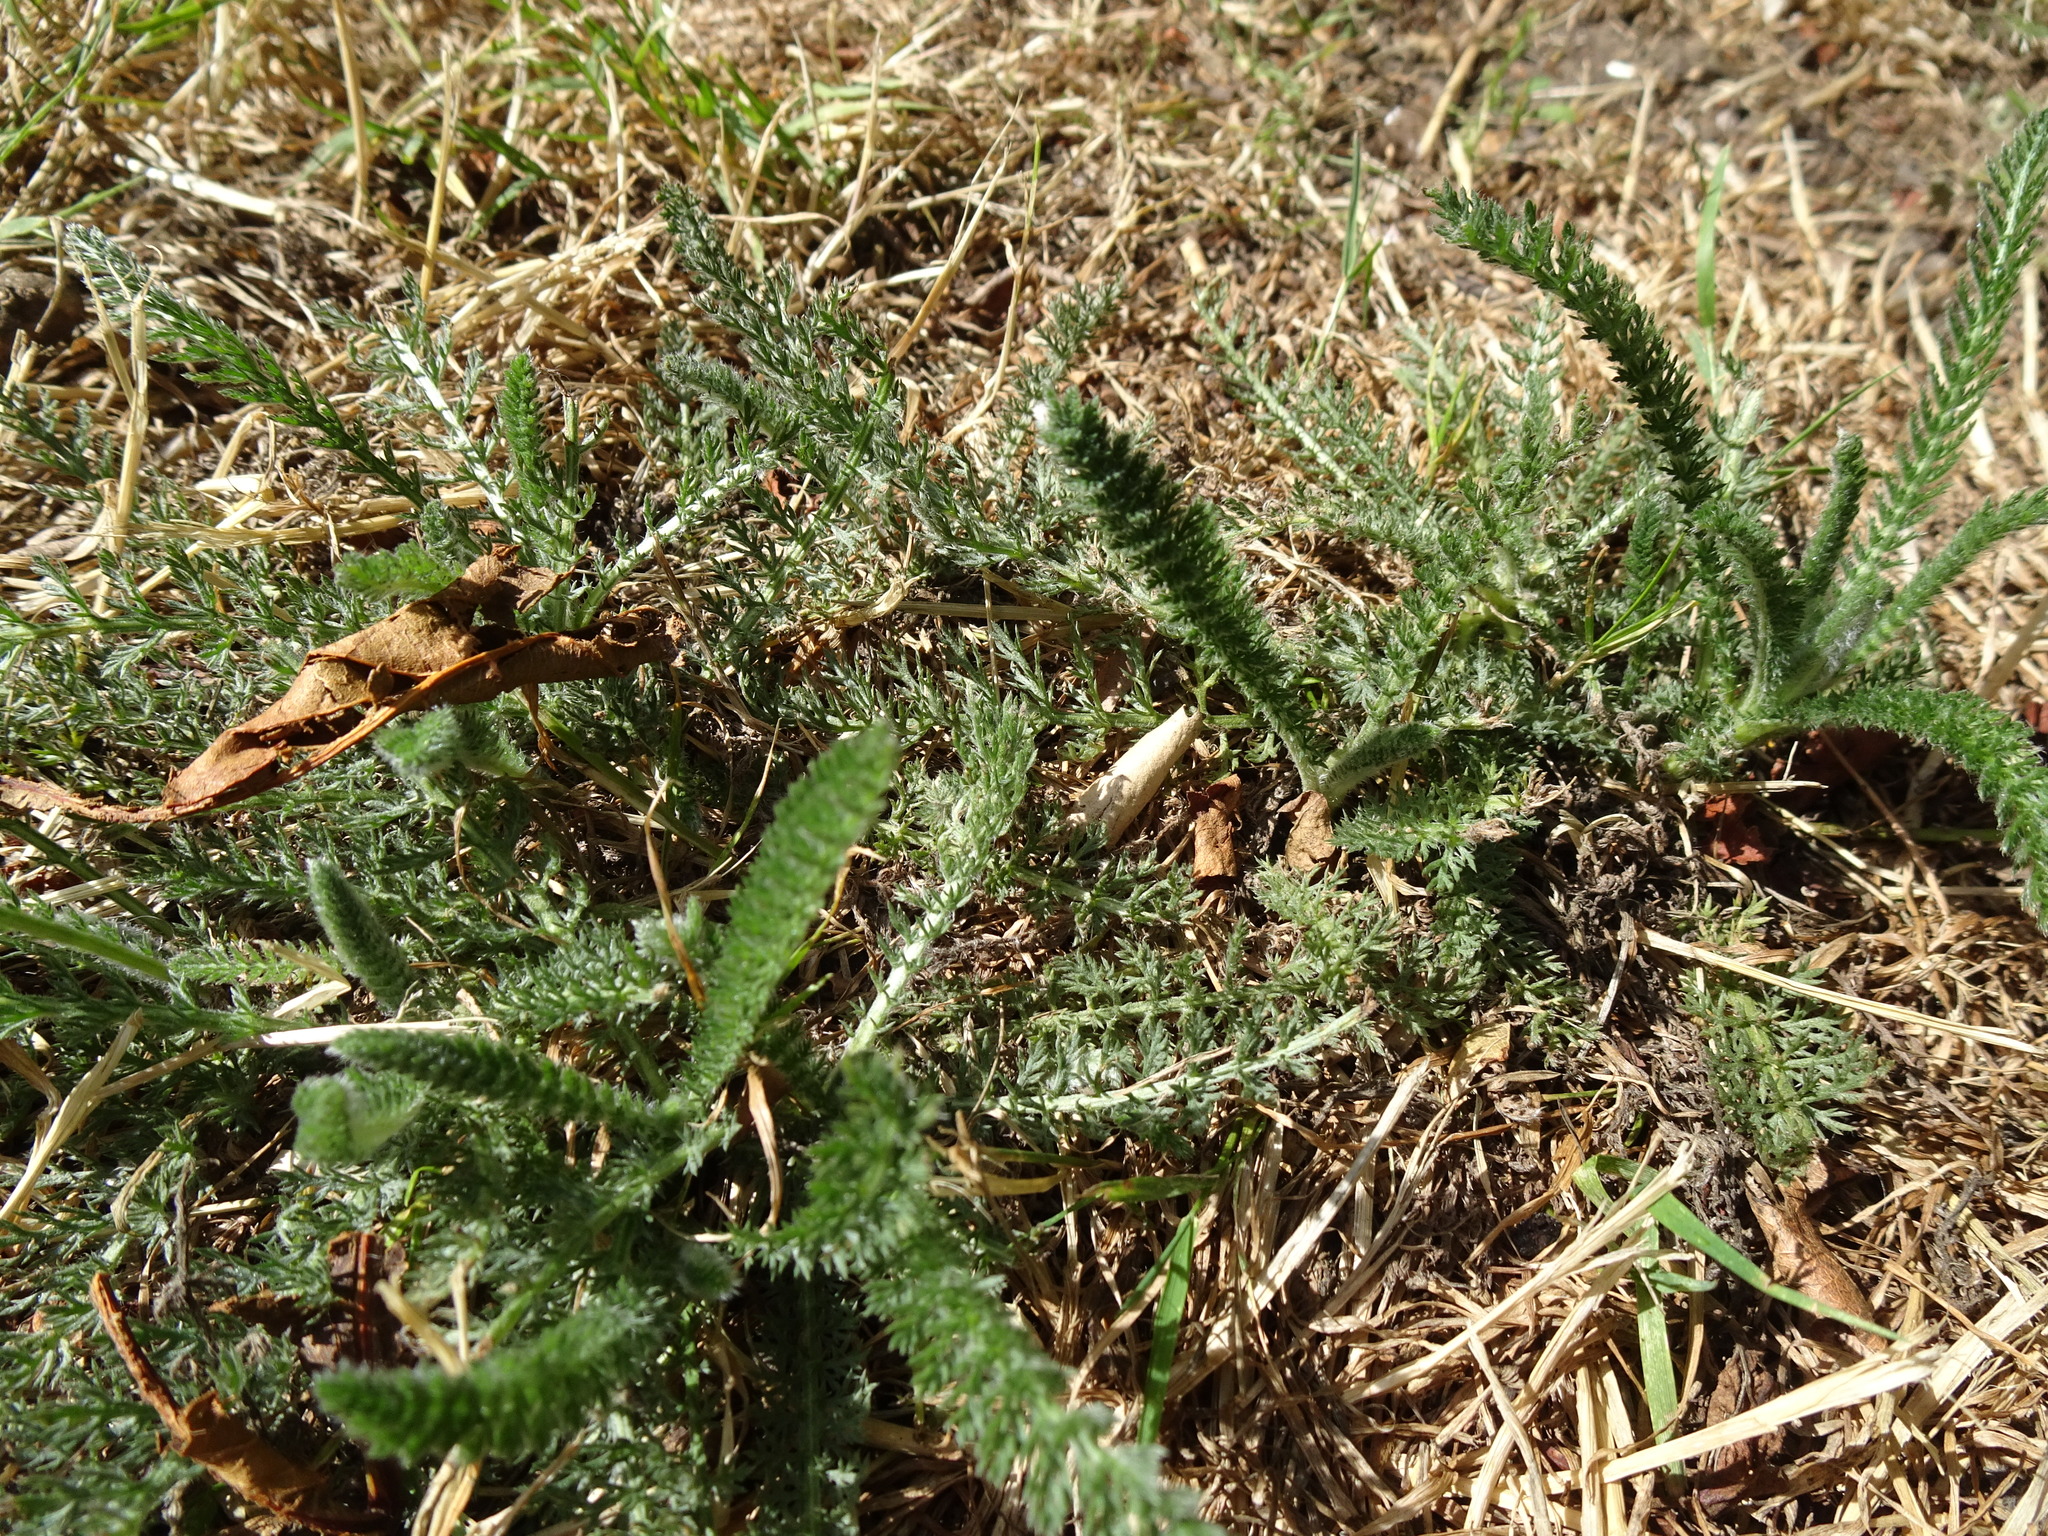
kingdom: Plantae
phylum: Tracheophyta
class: Magnoliopsida
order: Asterales
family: Asteraceae
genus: Achillea
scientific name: Achillea millefolium
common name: Yarrow
